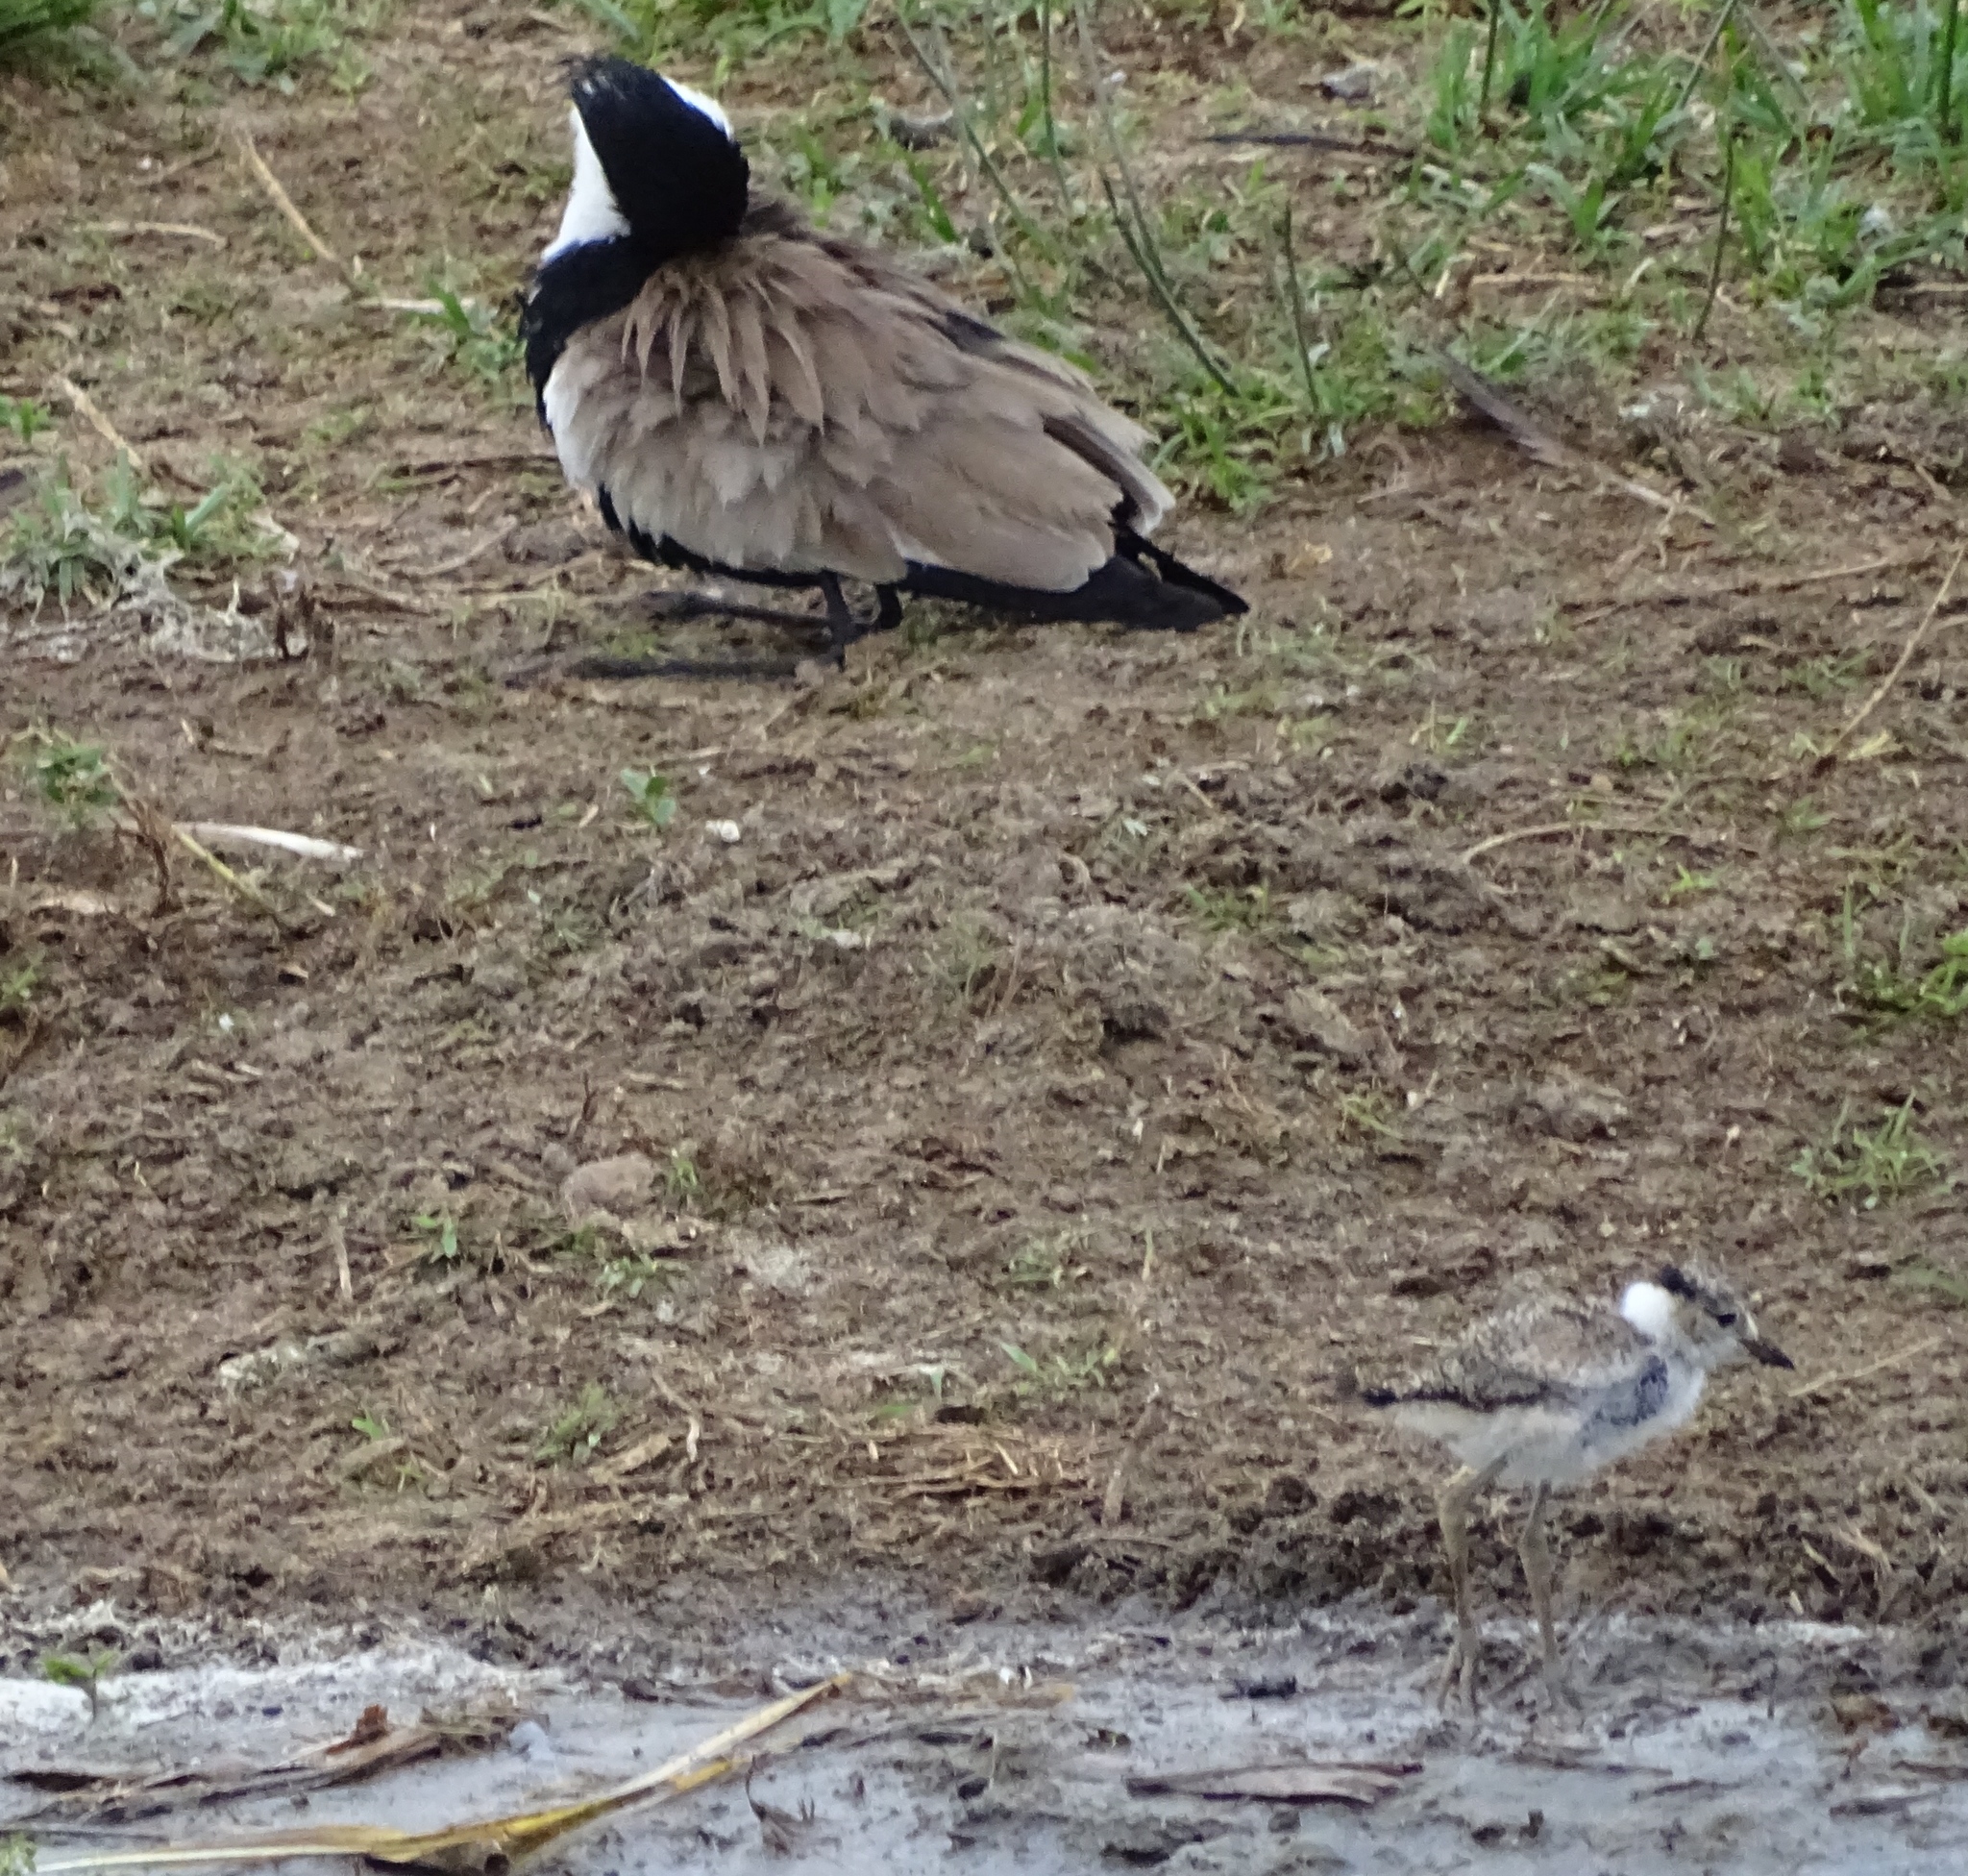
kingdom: Animalia
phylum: Chordata
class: Aves
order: Charadriiformes
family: Charadriidae
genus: Vanellus
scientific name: Vanellus spinosus
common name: Spur-winged lapwing
